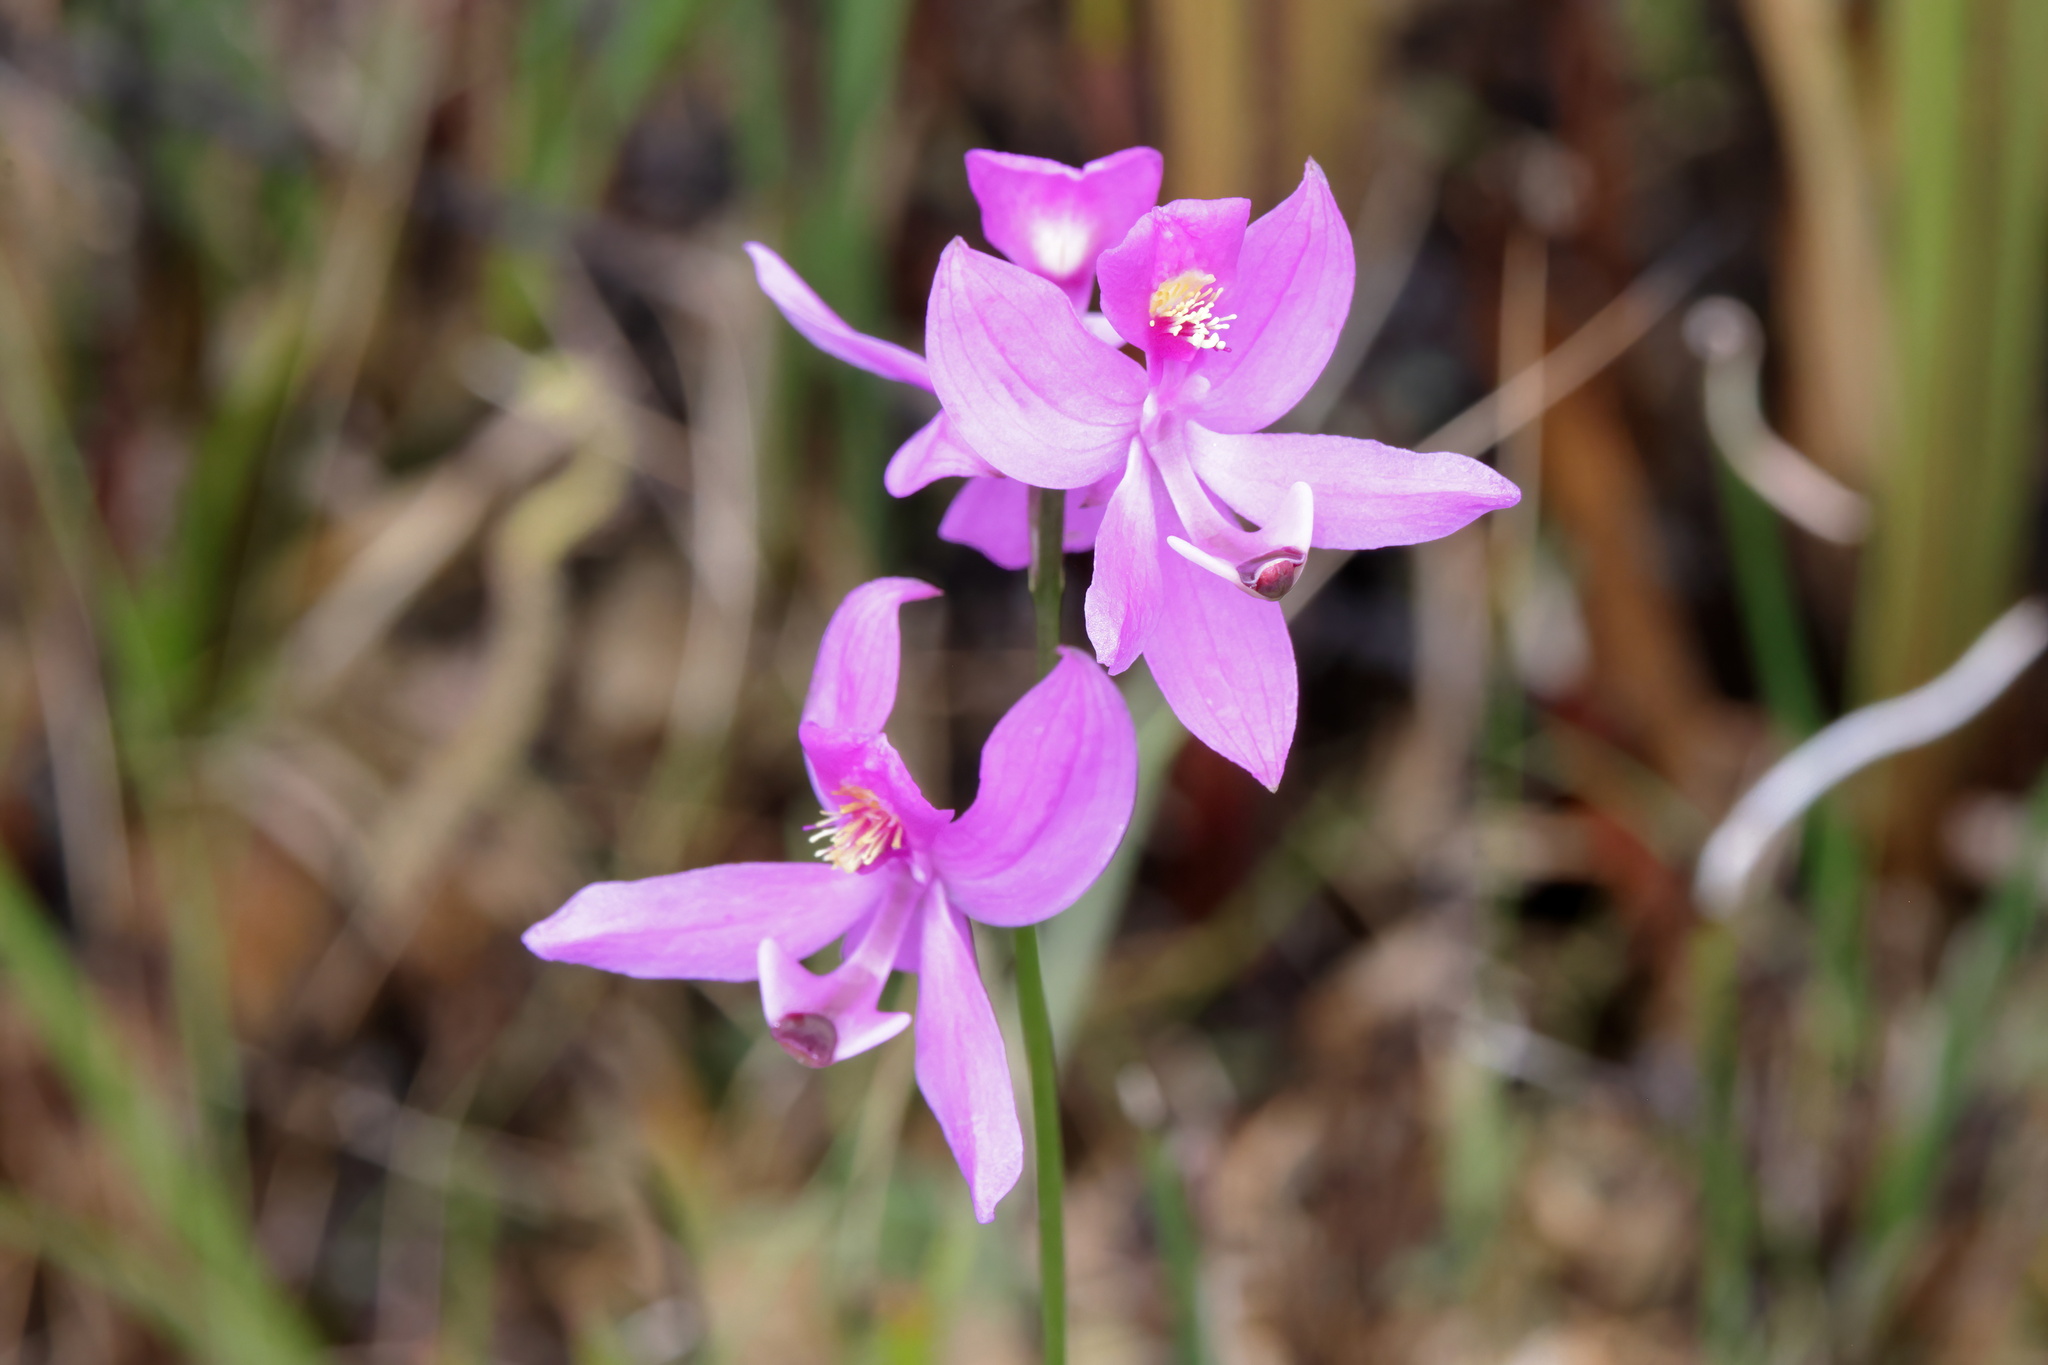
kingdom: Plantae
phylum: Tracheophyta
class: Liliopsida
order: Asparagales
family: Orchidaceae
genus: Calopogon
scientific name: Calopogon pallidus
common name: Pale grasspink
